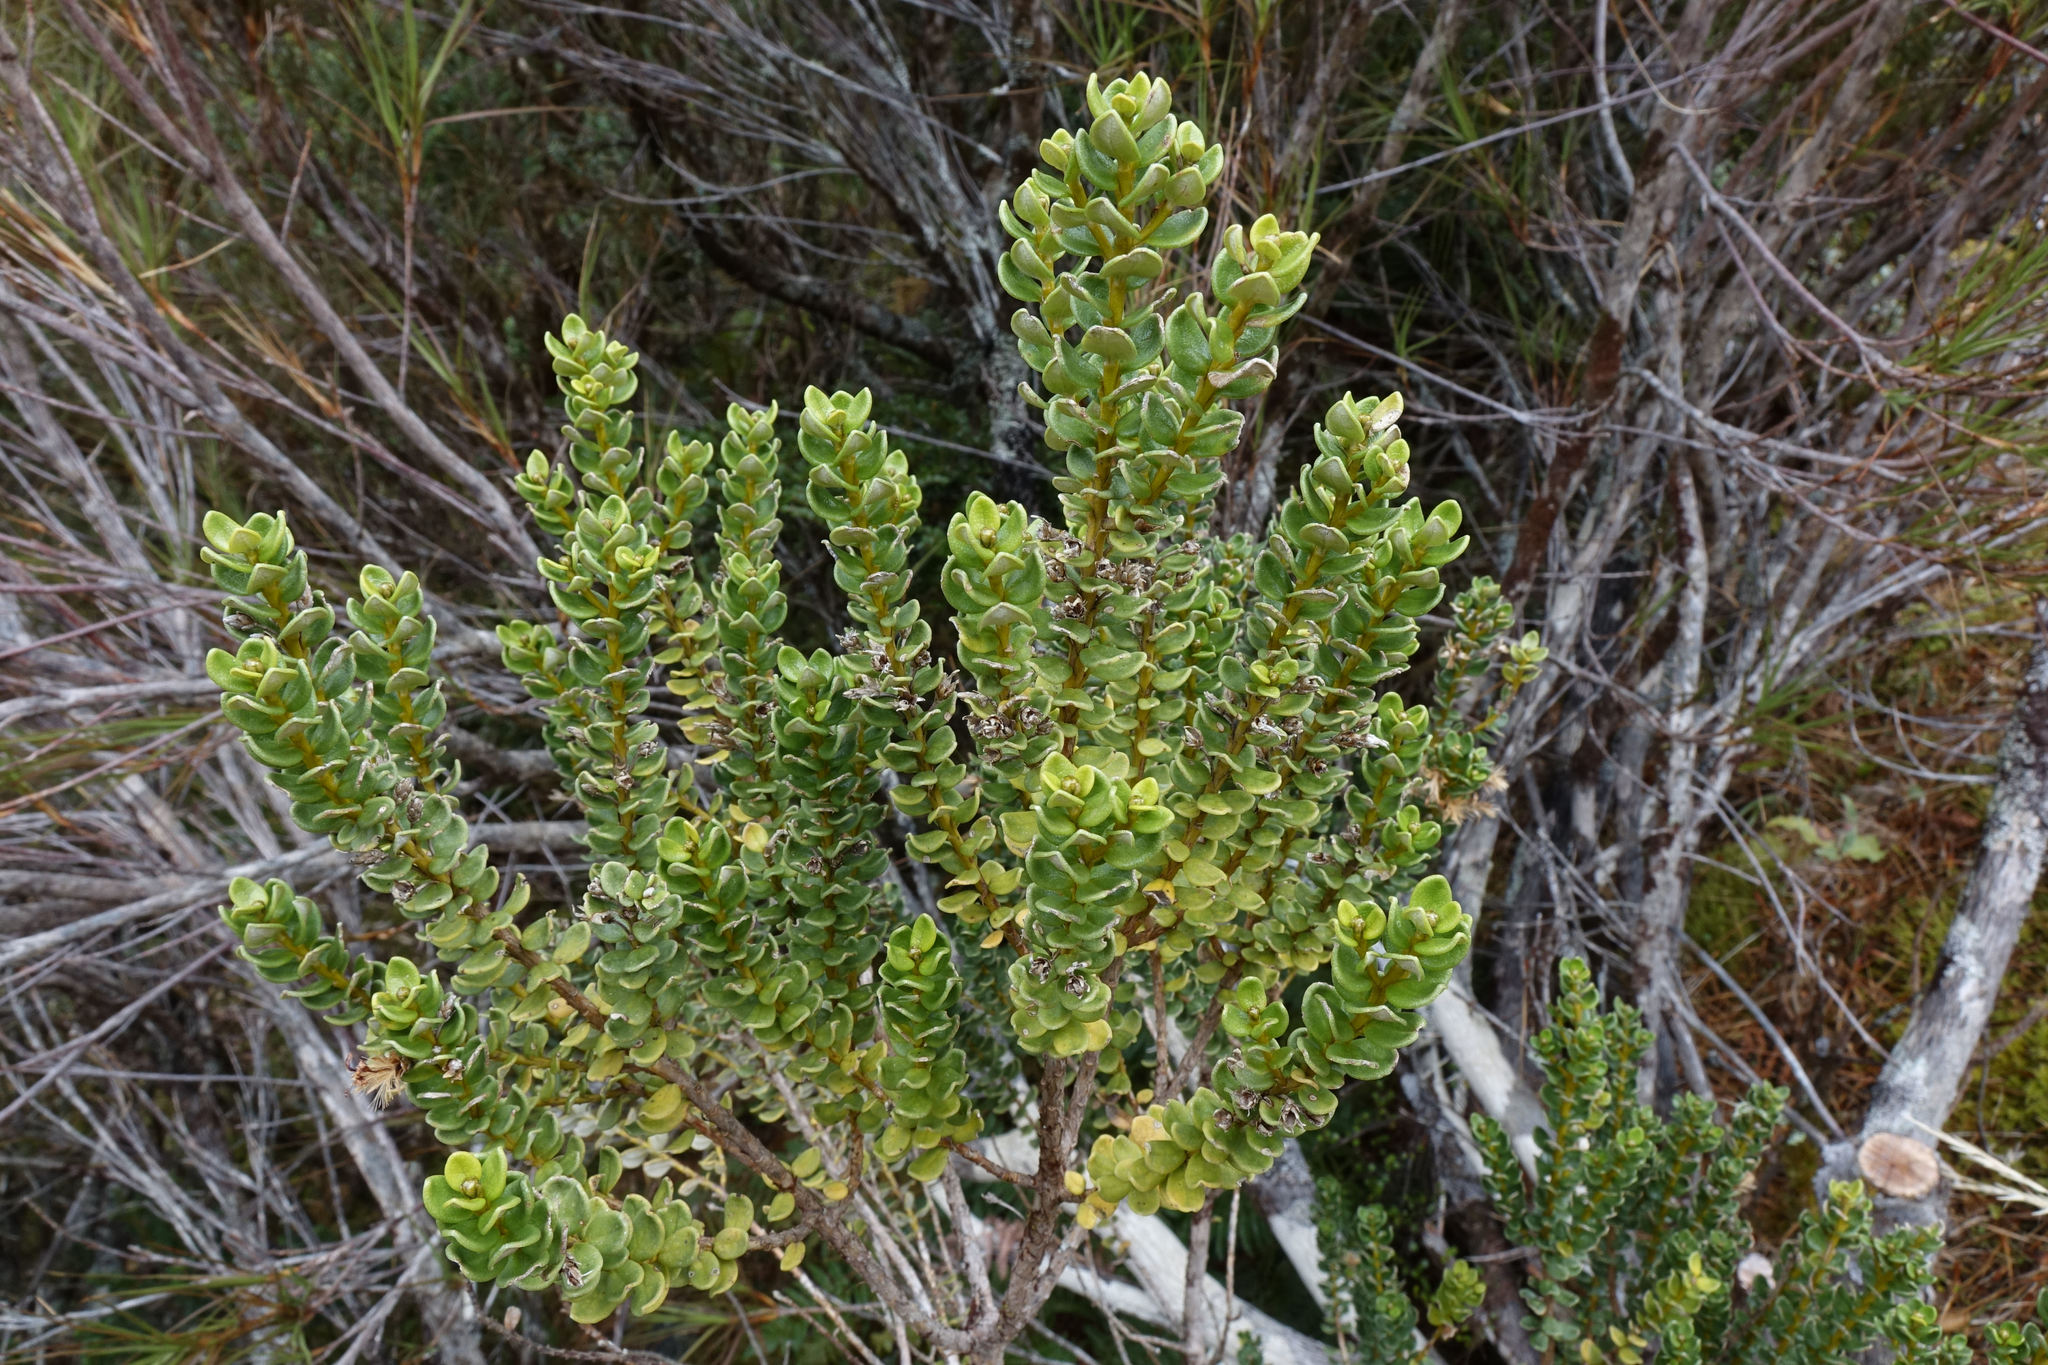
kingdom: Plantae
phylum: Tracheophyta
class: Magnoliopsida
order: Asterales
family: Asteraceae
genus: Olearia
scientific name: Olearia nummularifolia
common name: Sticky daisybush
